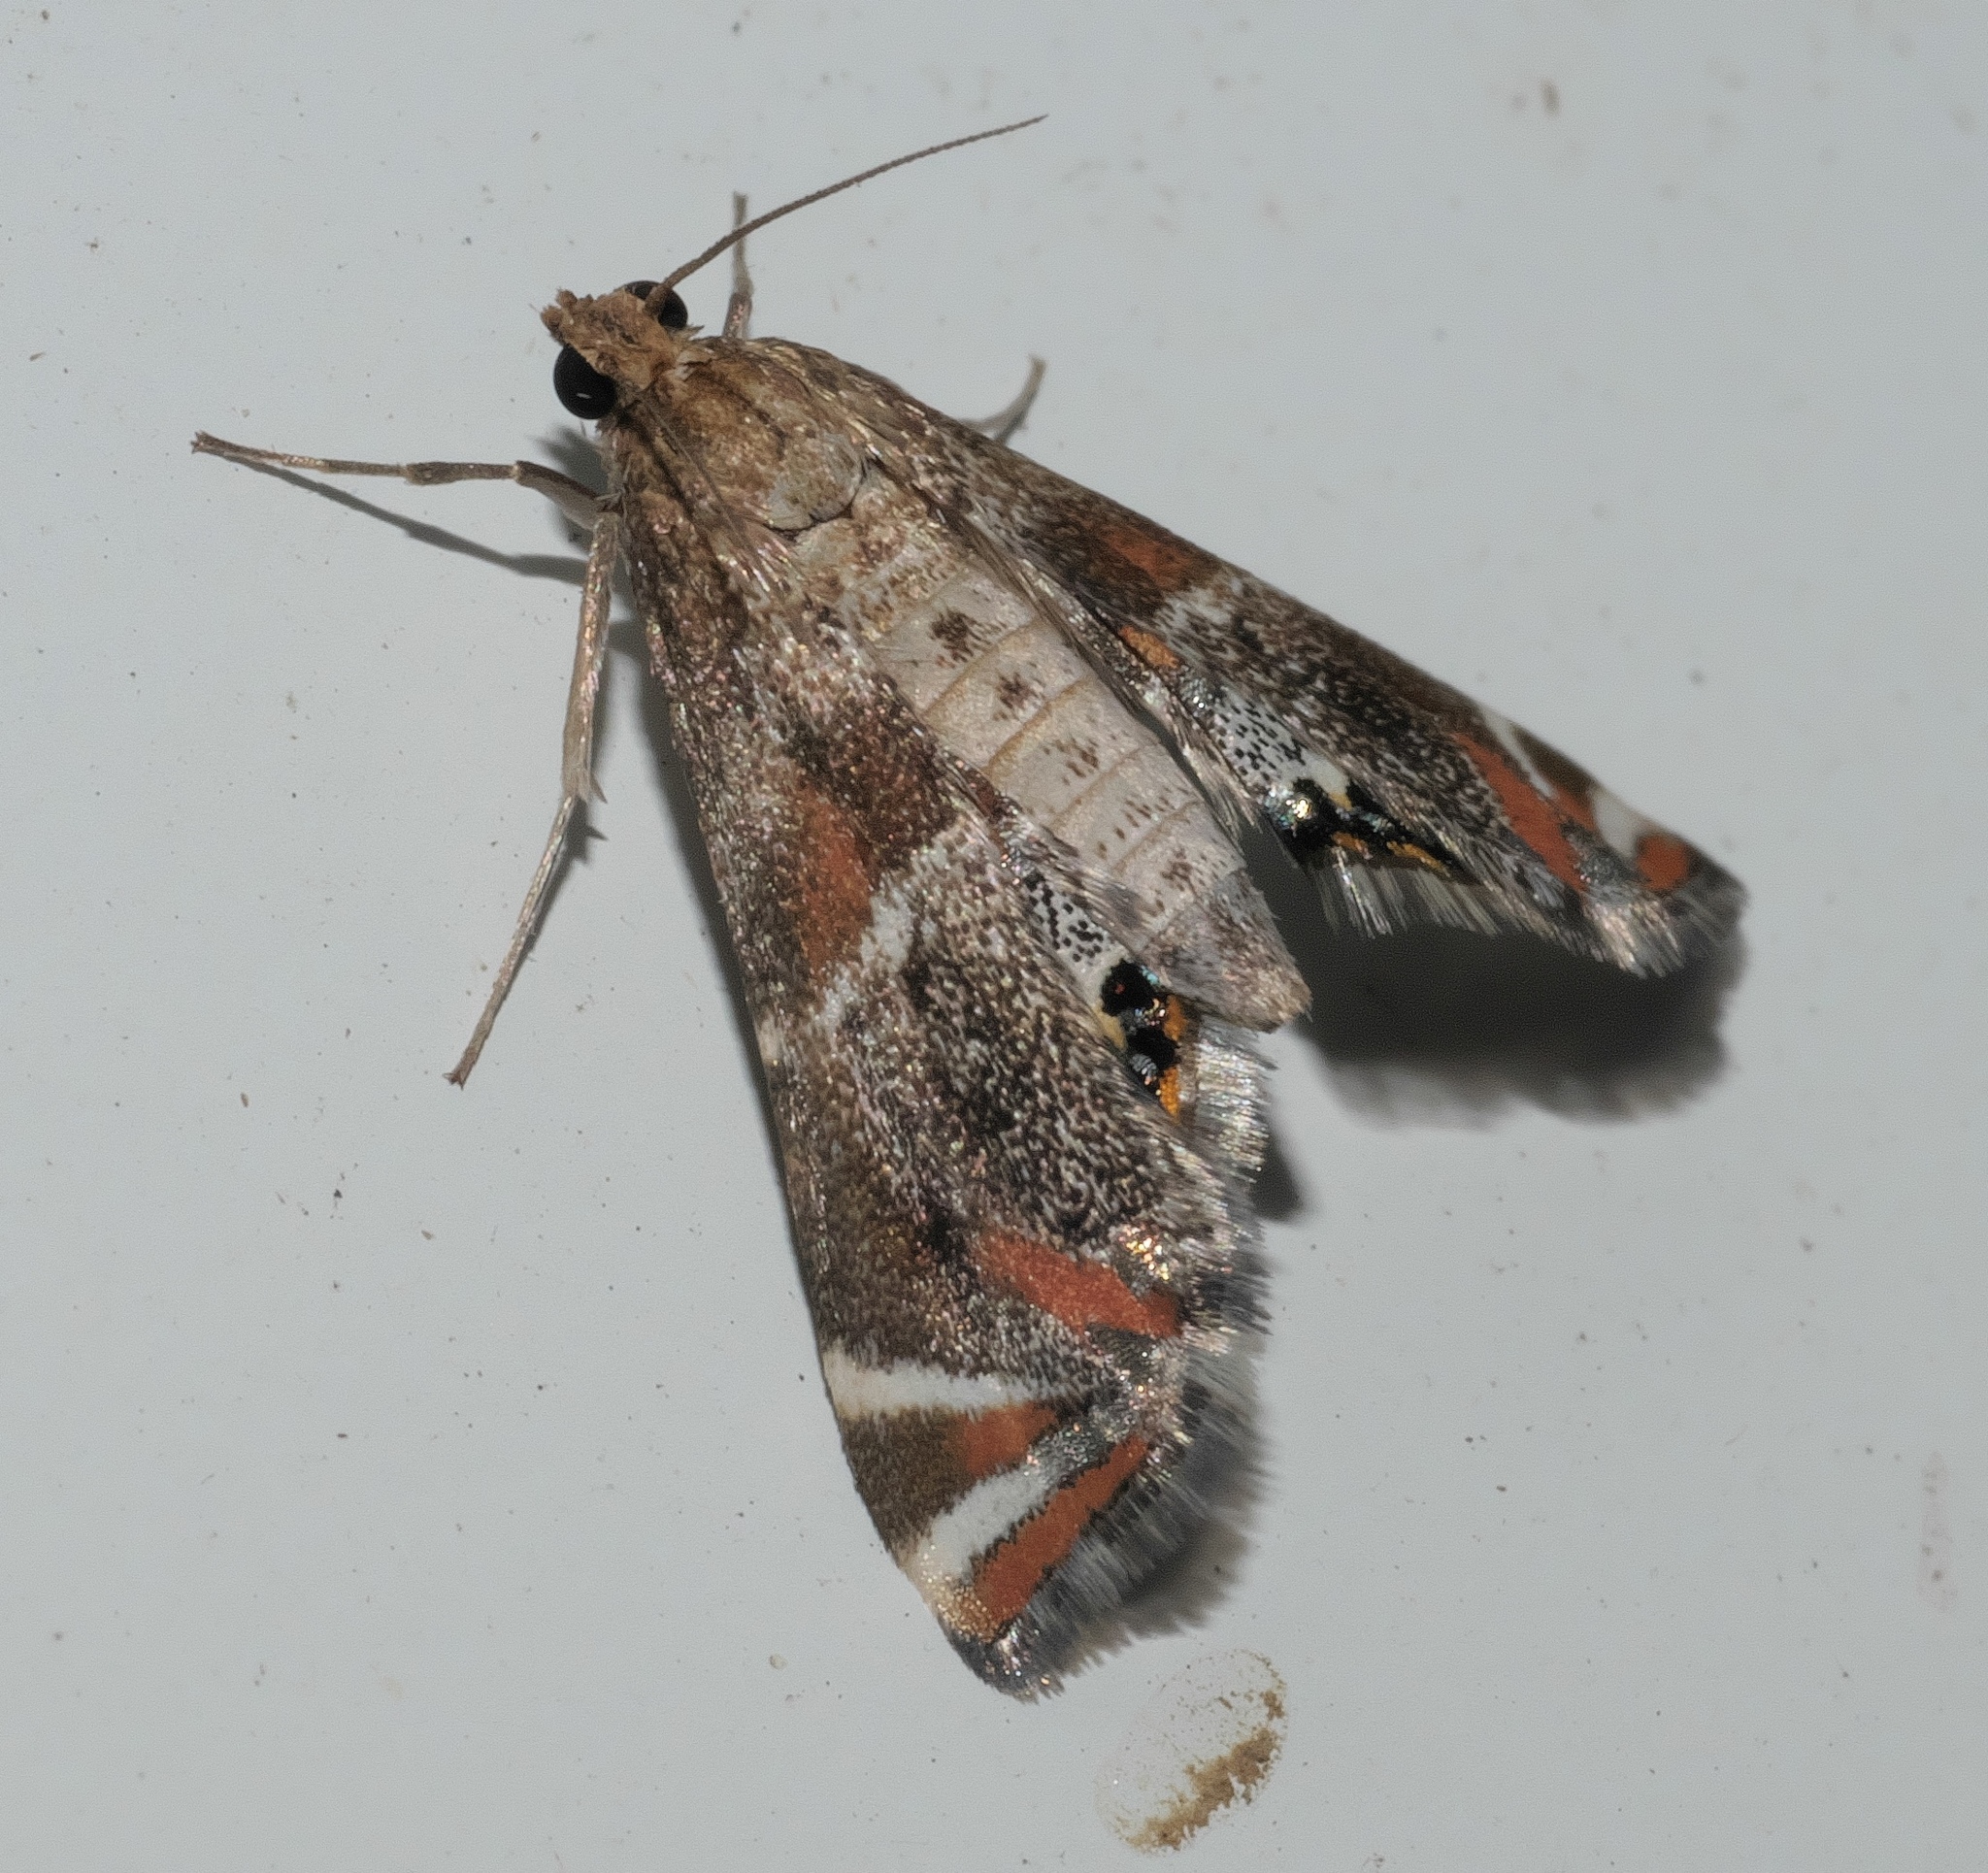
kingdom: Animalia
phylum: Arthropoda
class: Insecta
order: Lepidoptera
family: Crambidae
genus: Petrophila
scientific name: Petrophila jaliscalis
